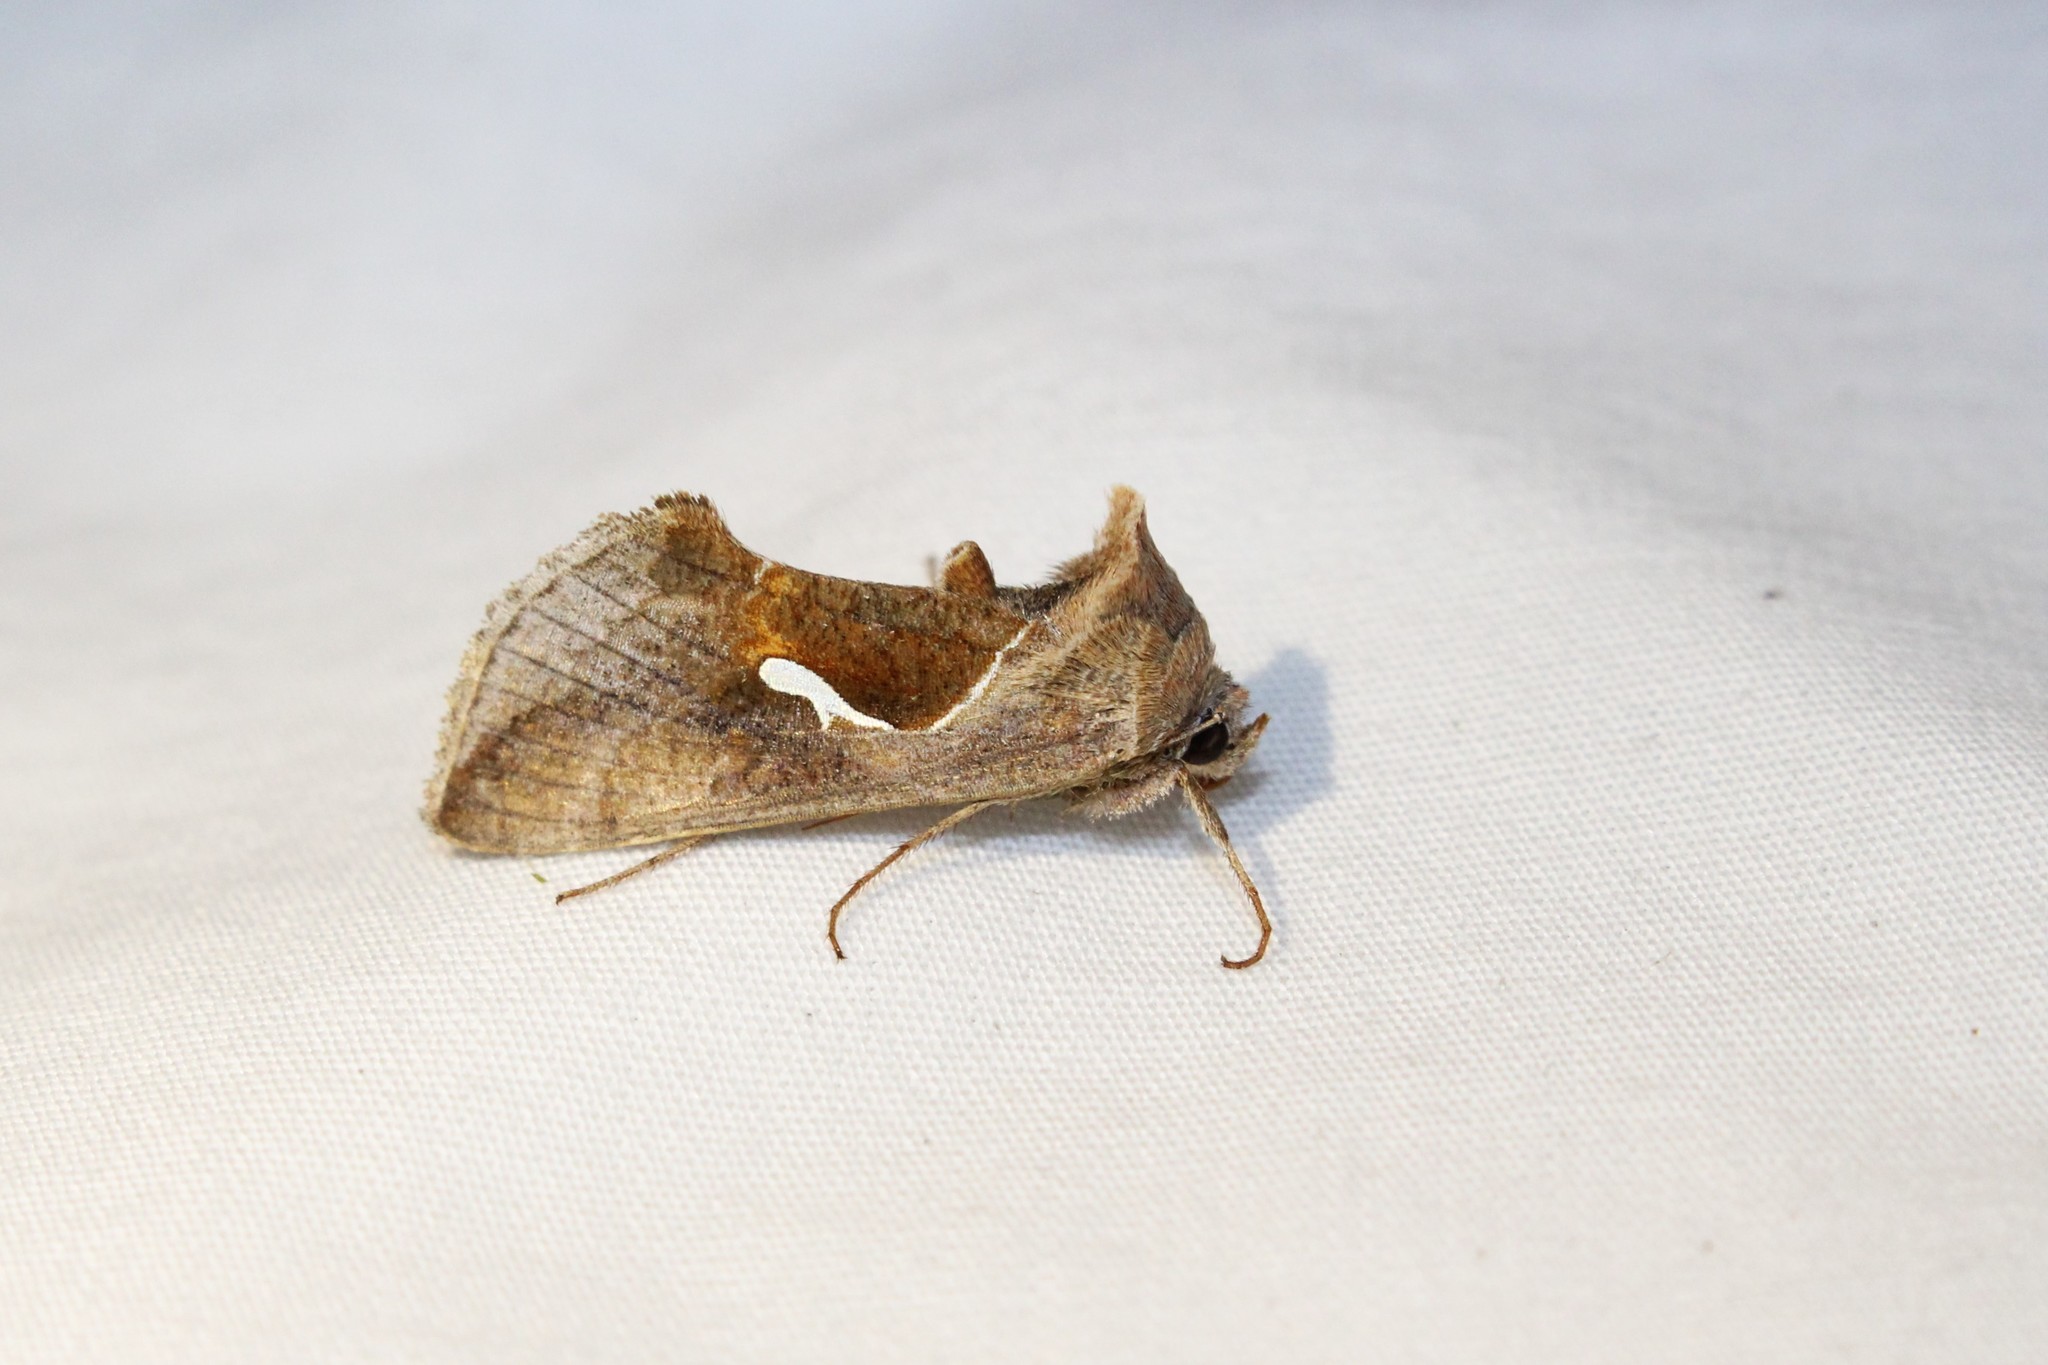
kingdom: Animalia
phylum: Arthropoda
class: Insecta
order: Lepidoptera
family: Noctuidae
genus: Anagrapha
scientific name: Anagrapha falcifera
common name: Celery looper
